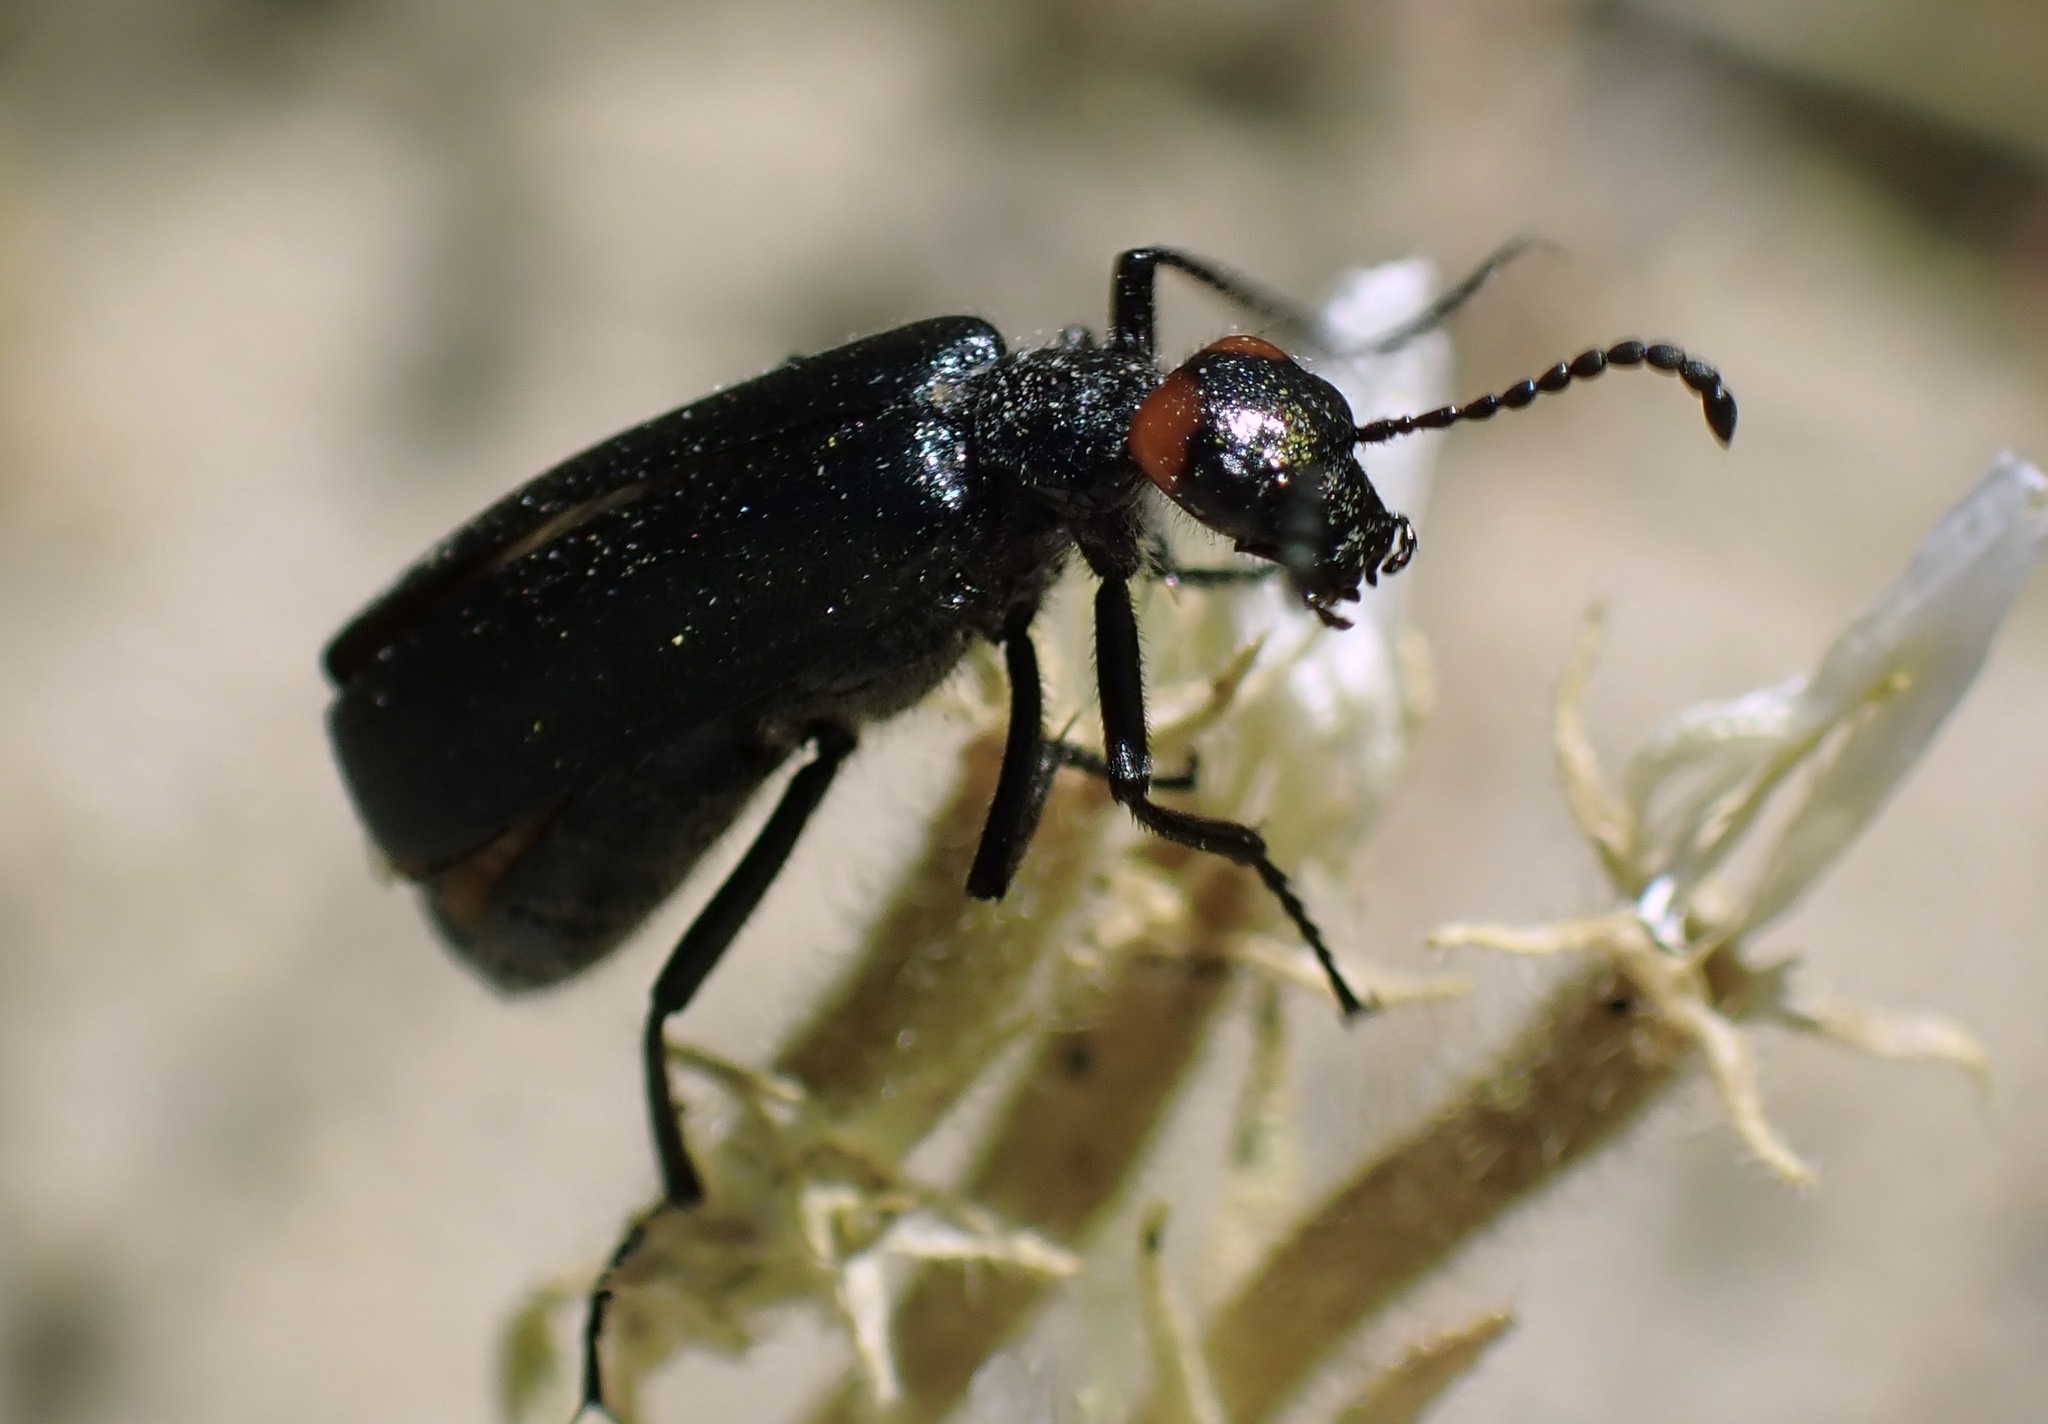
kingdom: Animalia
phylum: Arthropoda
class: Insecta
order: Coleoptera
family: Meloidae
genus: Lytta
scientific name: Lytta auriculata
